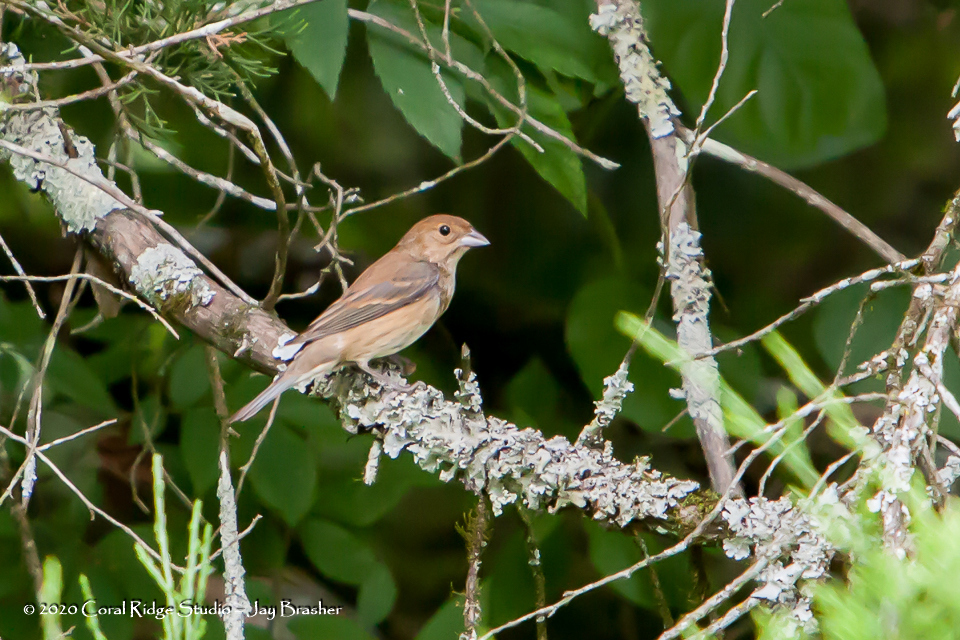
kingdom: Animalia
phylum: Chordata
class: Aves
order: Passeriformes
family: Cardinalidae
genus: Passerina
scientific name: Passerina cyanea
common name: Indigo bunting
